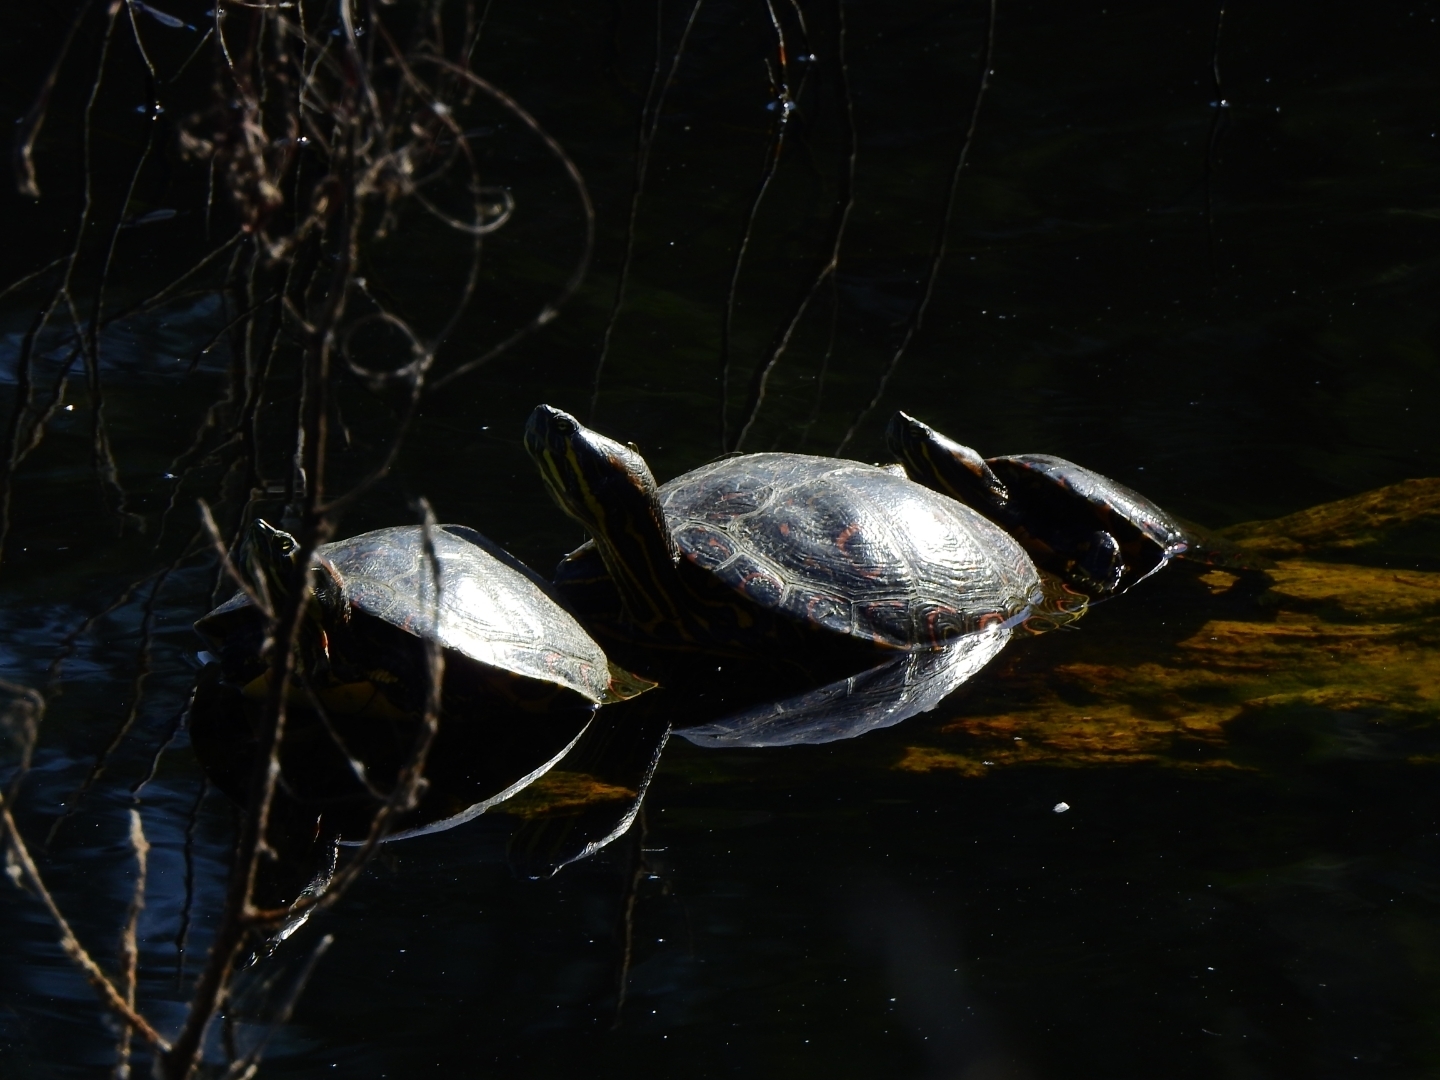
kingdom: Animalia
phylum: Chordata
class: Testudines
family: Emydidae
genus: Trachemys
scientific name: Trachemys venusta
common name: Mesoamerican slider
